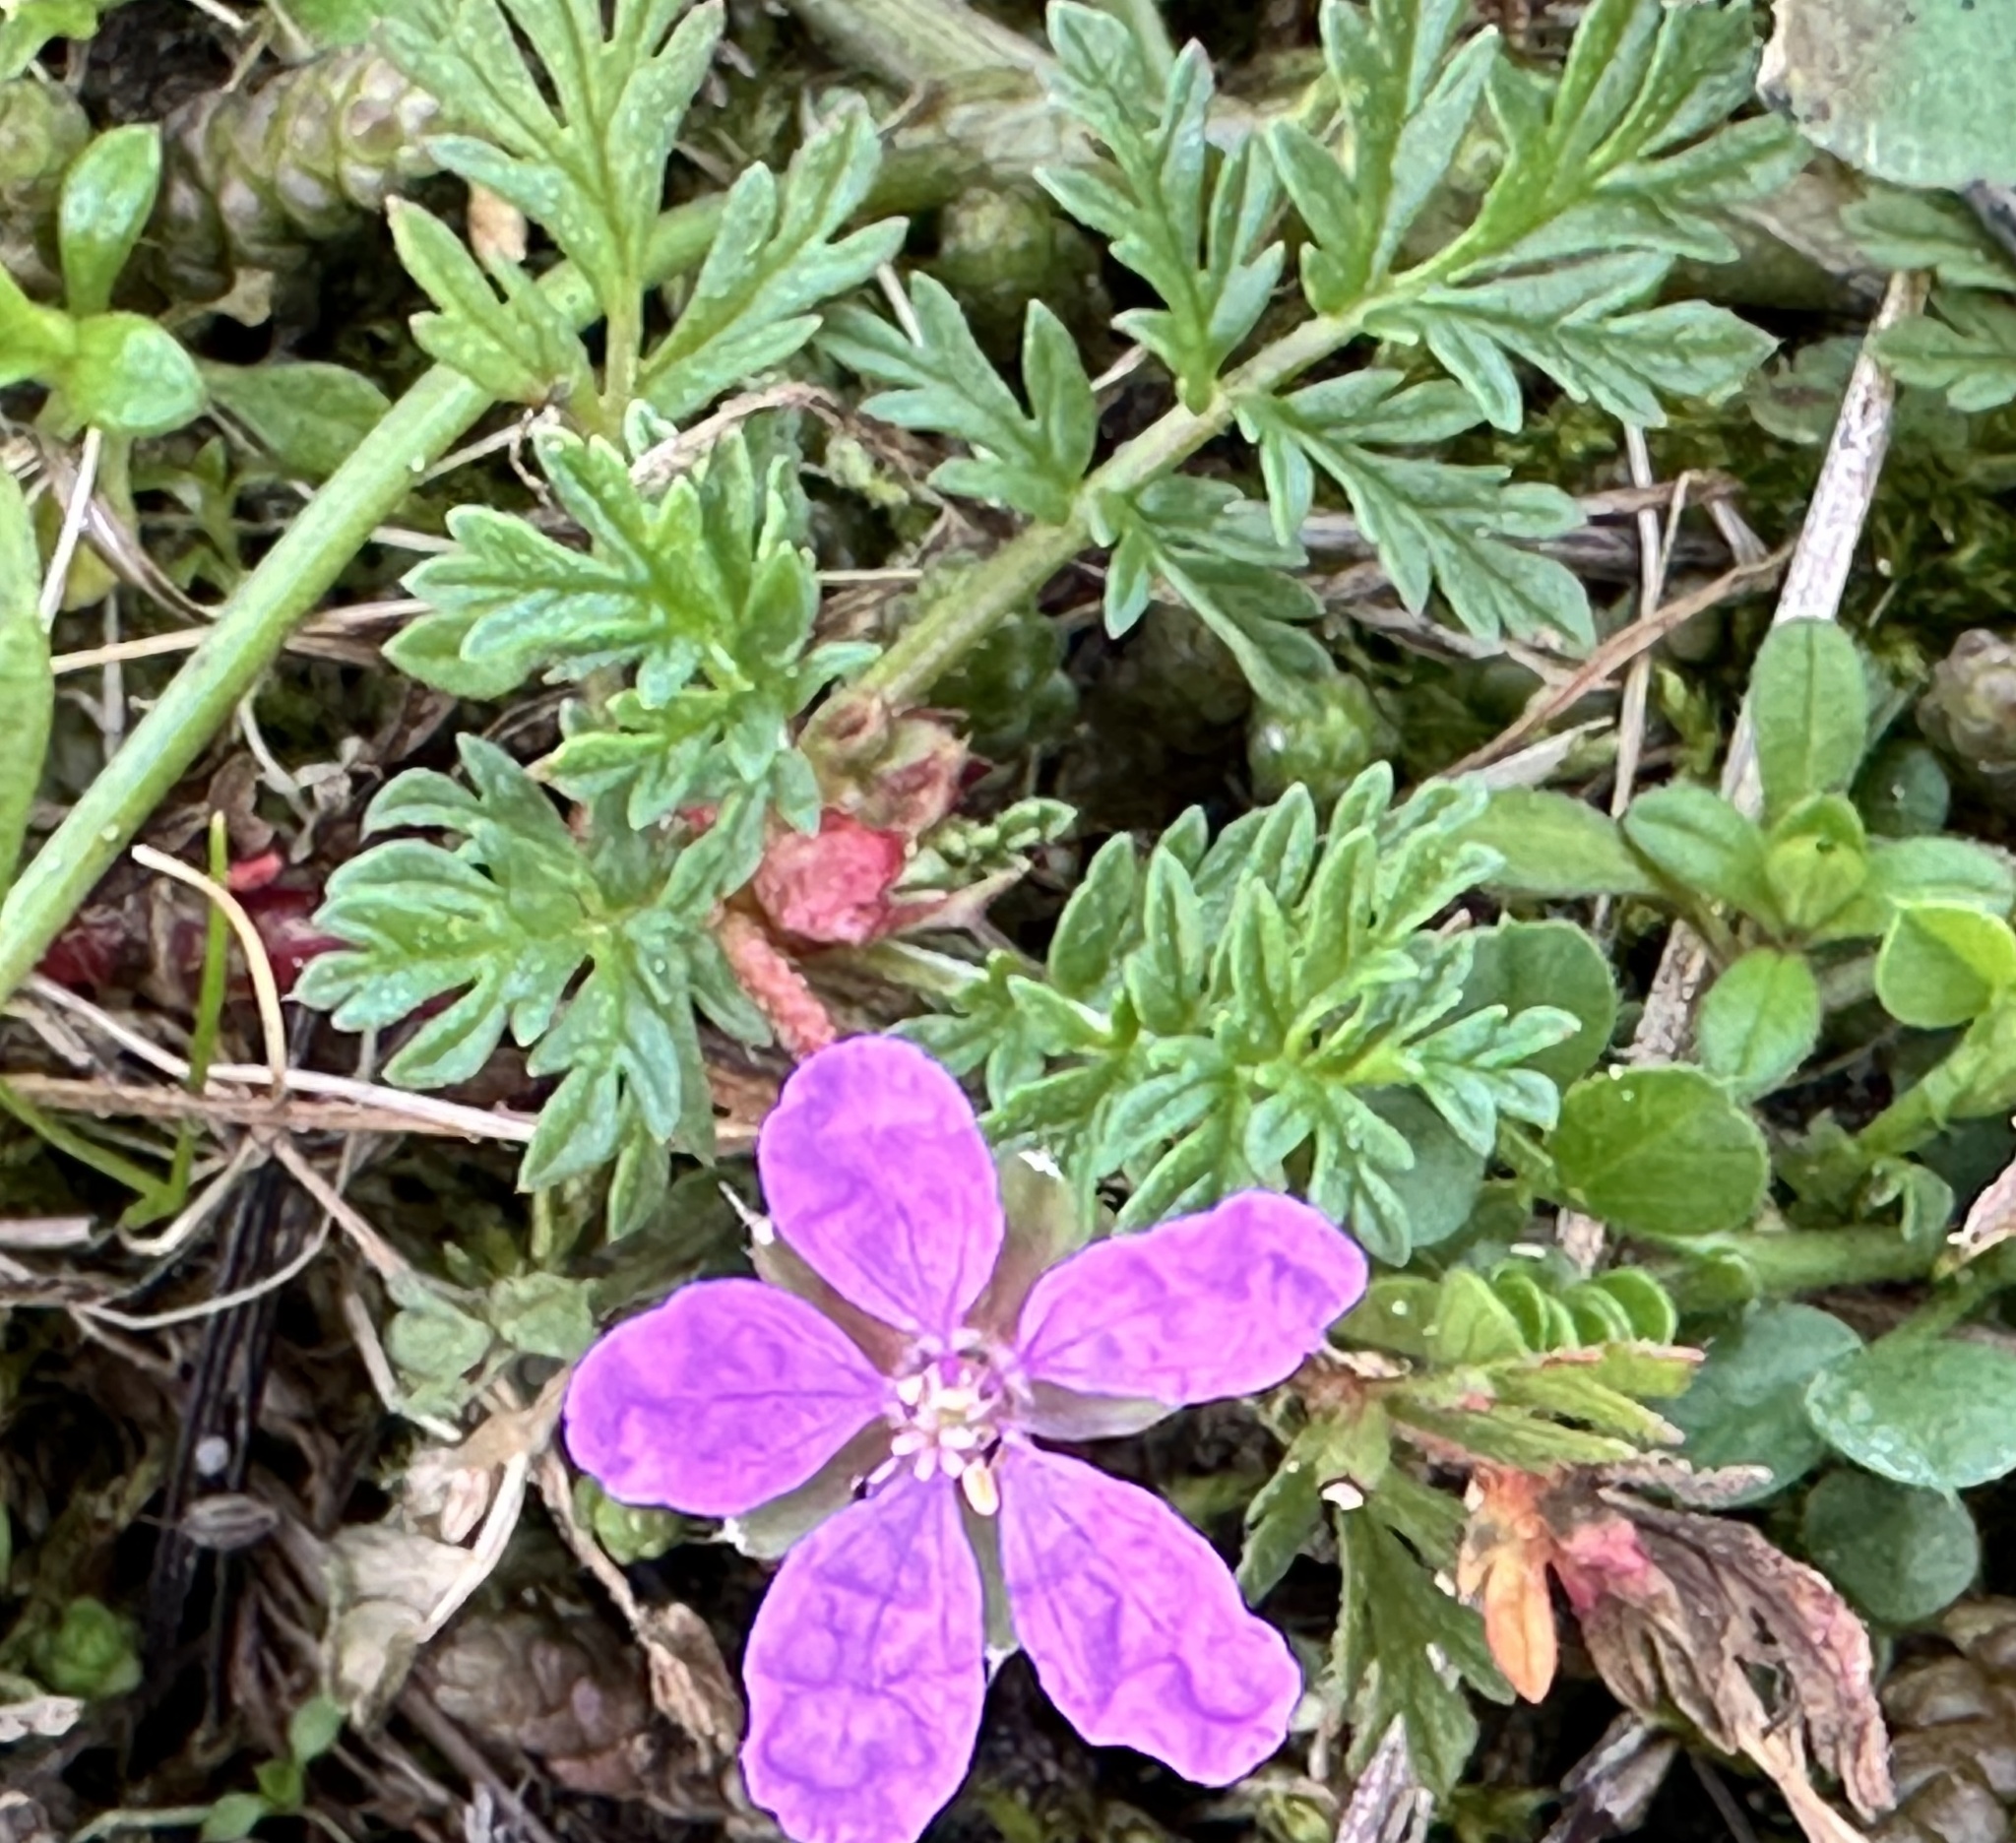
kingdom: Plantae
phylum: Tracheophyta
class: Magnoliopsida
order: Geraniales
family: Geraniaceae
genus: Erodium
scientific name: Erodium cicutarium
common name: Common stork's-bill
